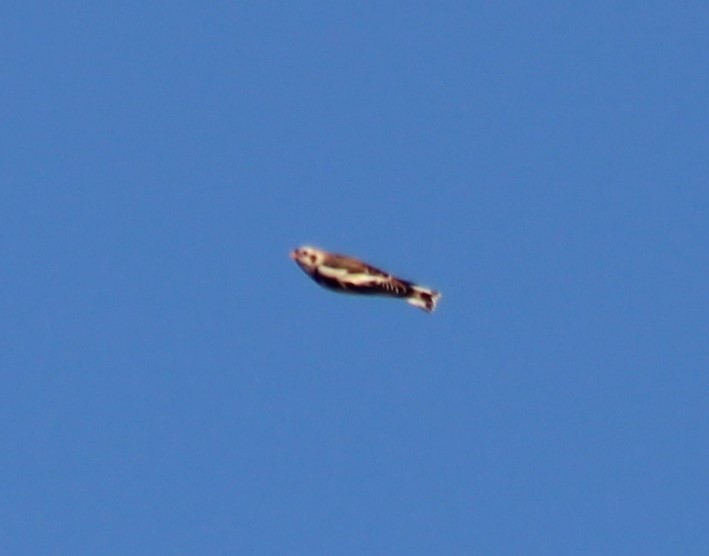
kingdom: Animalia
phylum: Chordata
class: Aves
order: Passeriformes
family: Calcariidae
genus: Plectrophenax
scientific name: Plectrophenax nivalis
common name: Snow bunting
